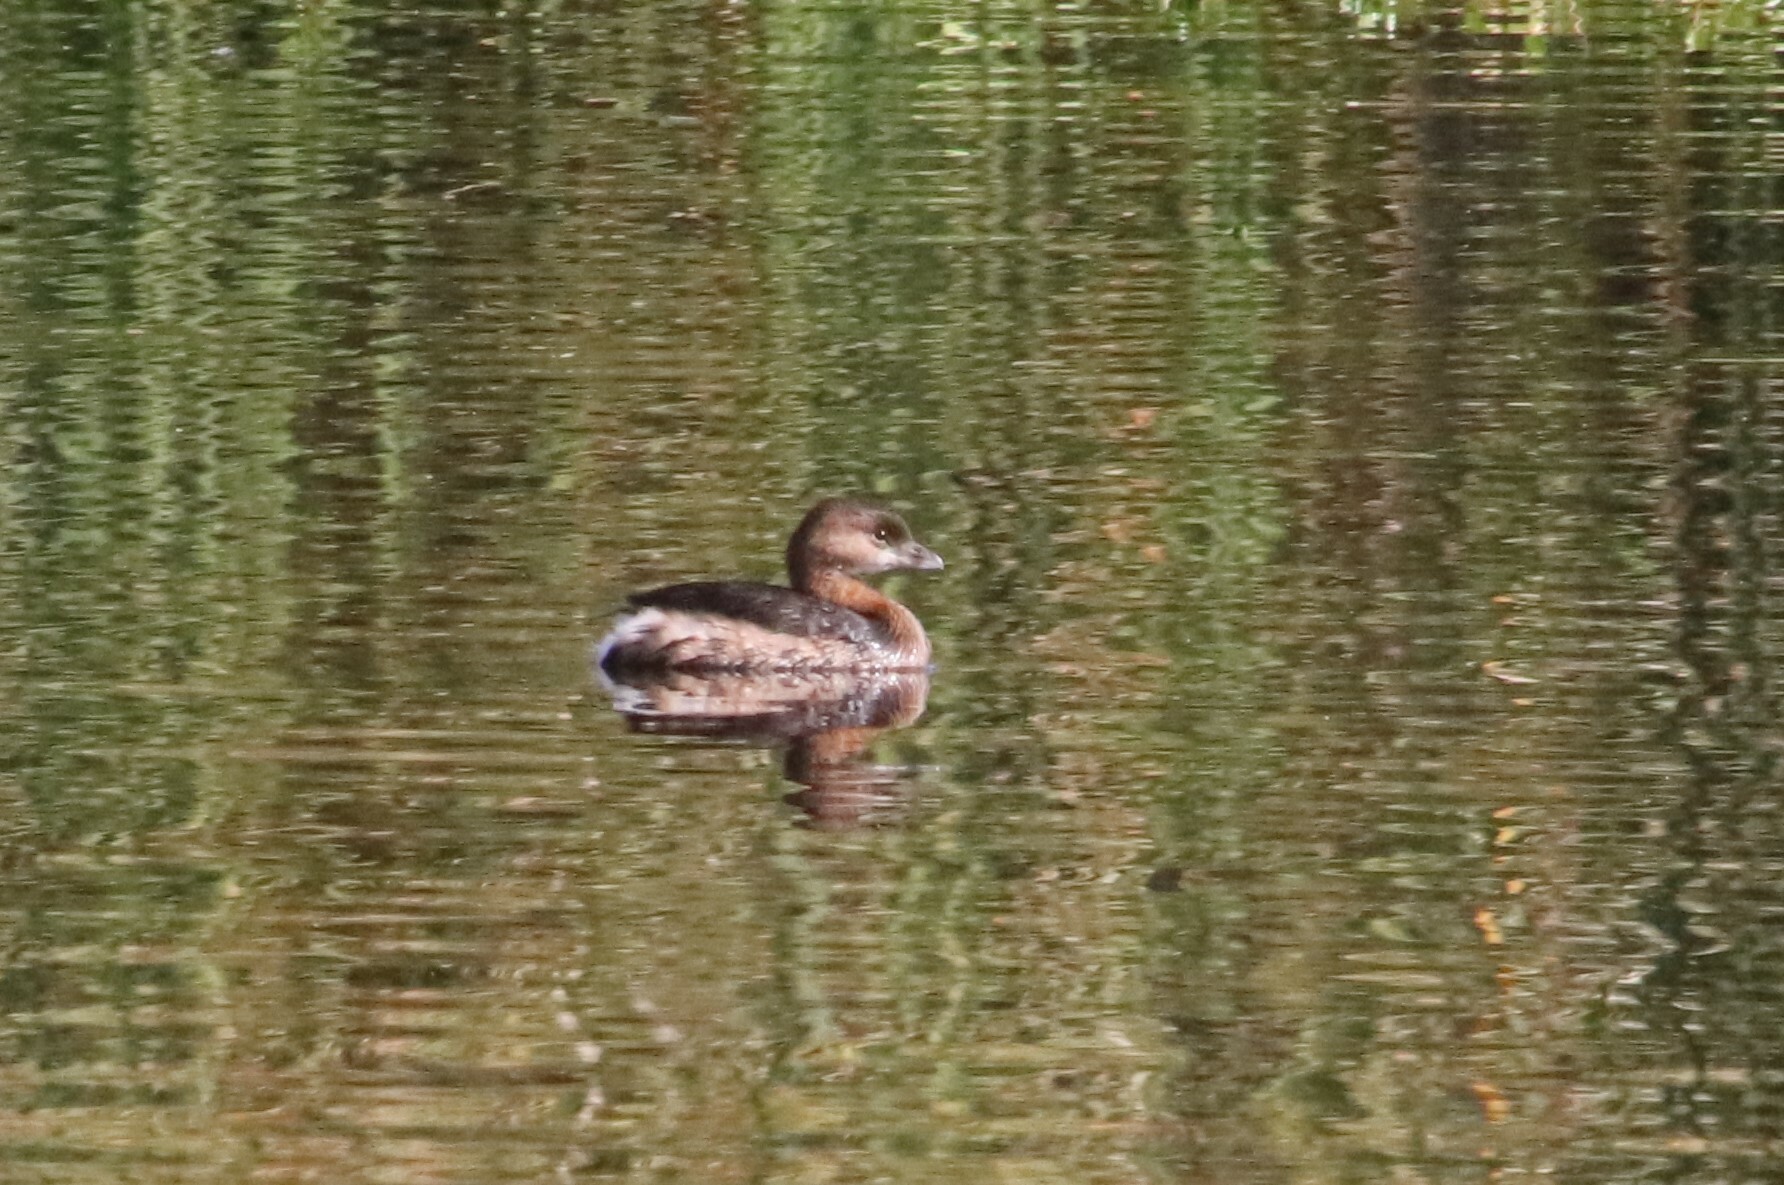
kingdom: Animalia
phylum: Chordata
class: Aves
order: Podicipediformes
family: Podicipedidae
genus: Podilymbus
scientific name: Podilymbus podiceps
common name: Pied-billed grebe
